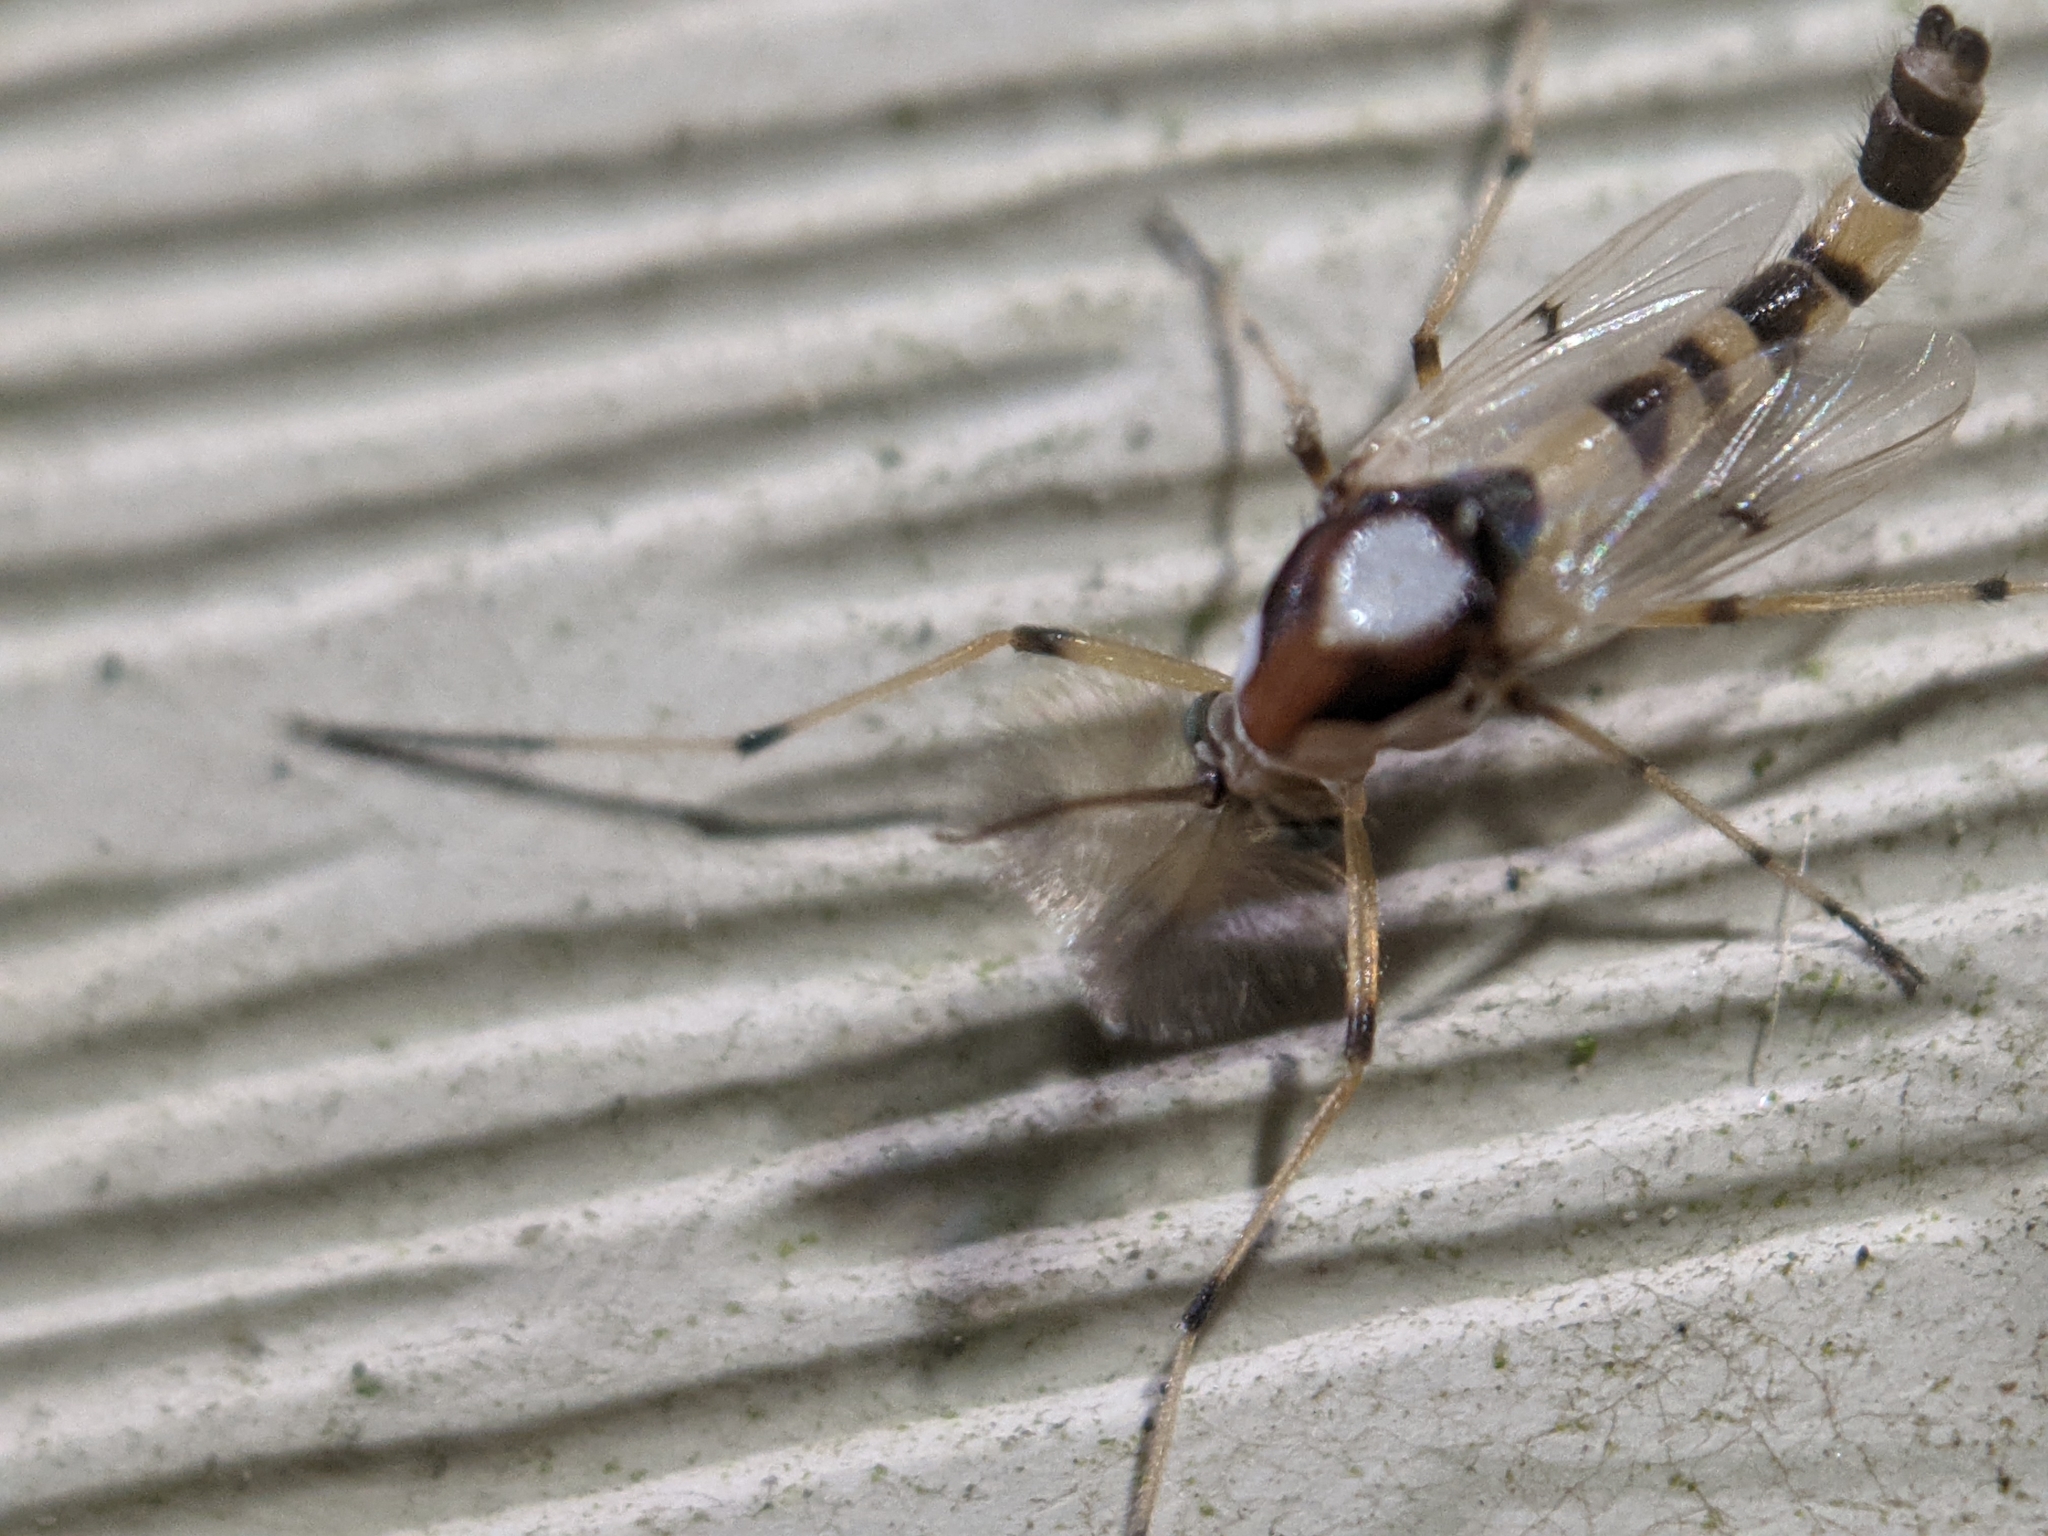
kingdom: Animalia
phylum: Arthropoda
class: Insecta
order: Diptera
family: Chironomidae
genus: Coelotanypus
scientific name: Coelotanypus tricolor
